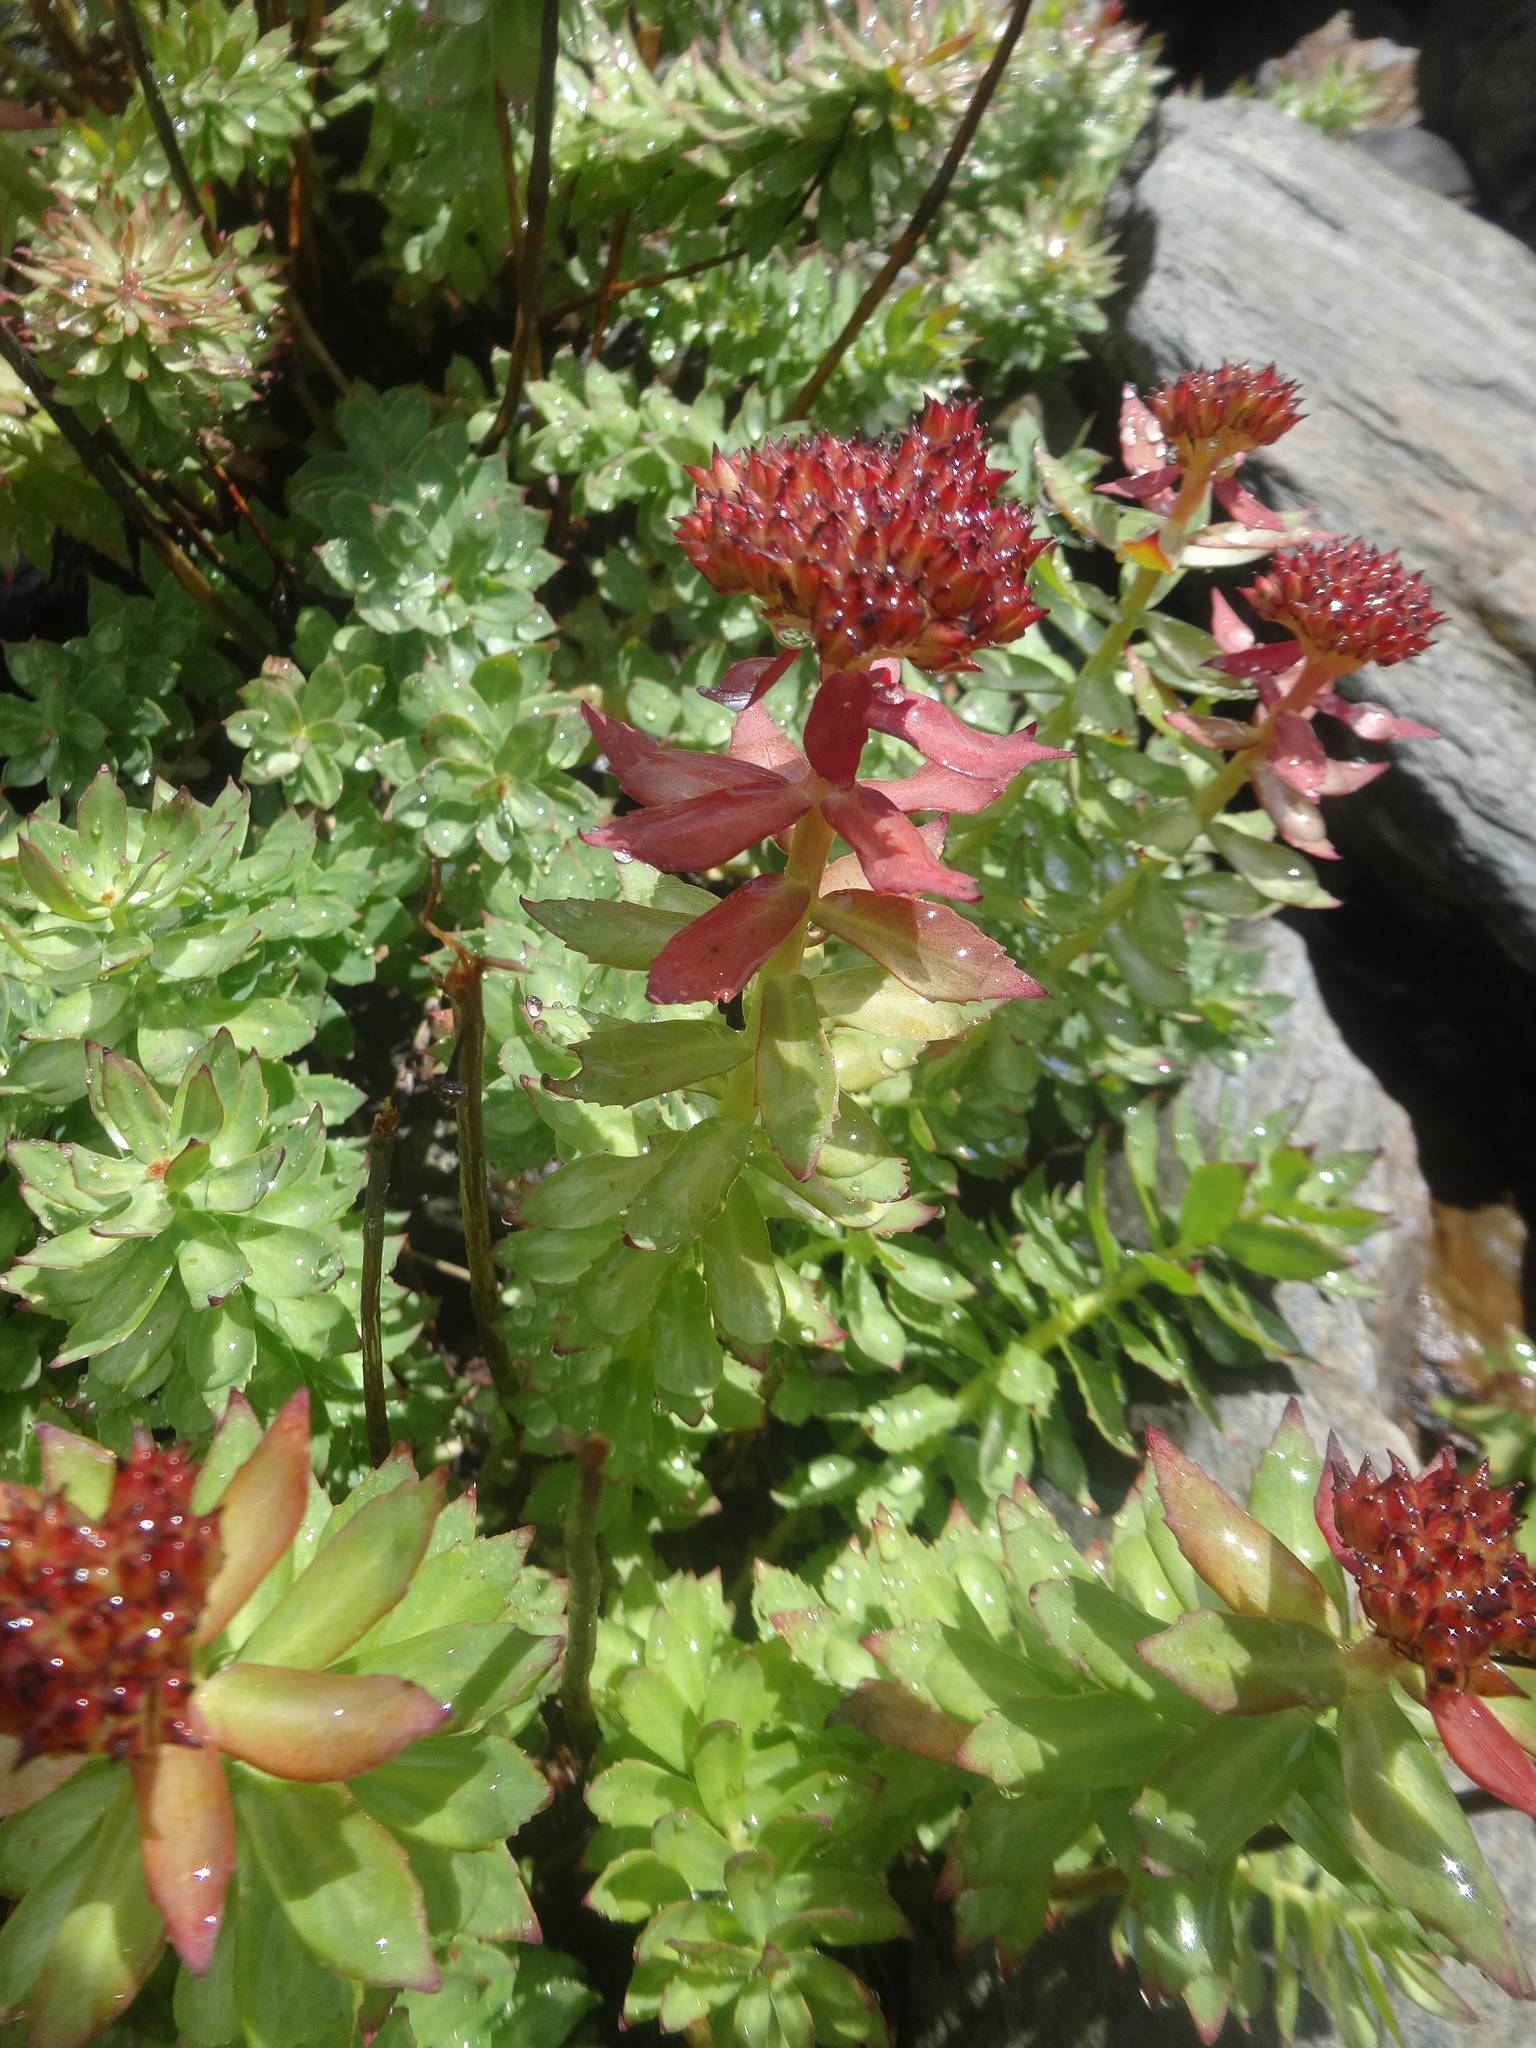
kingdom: Plantae
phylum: Tracheophyta
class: Magnoliopsida
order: Saxifragales
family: Crassulaceae
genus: Rhodiola
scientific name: Rhodiola rosea
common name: Roseroot
